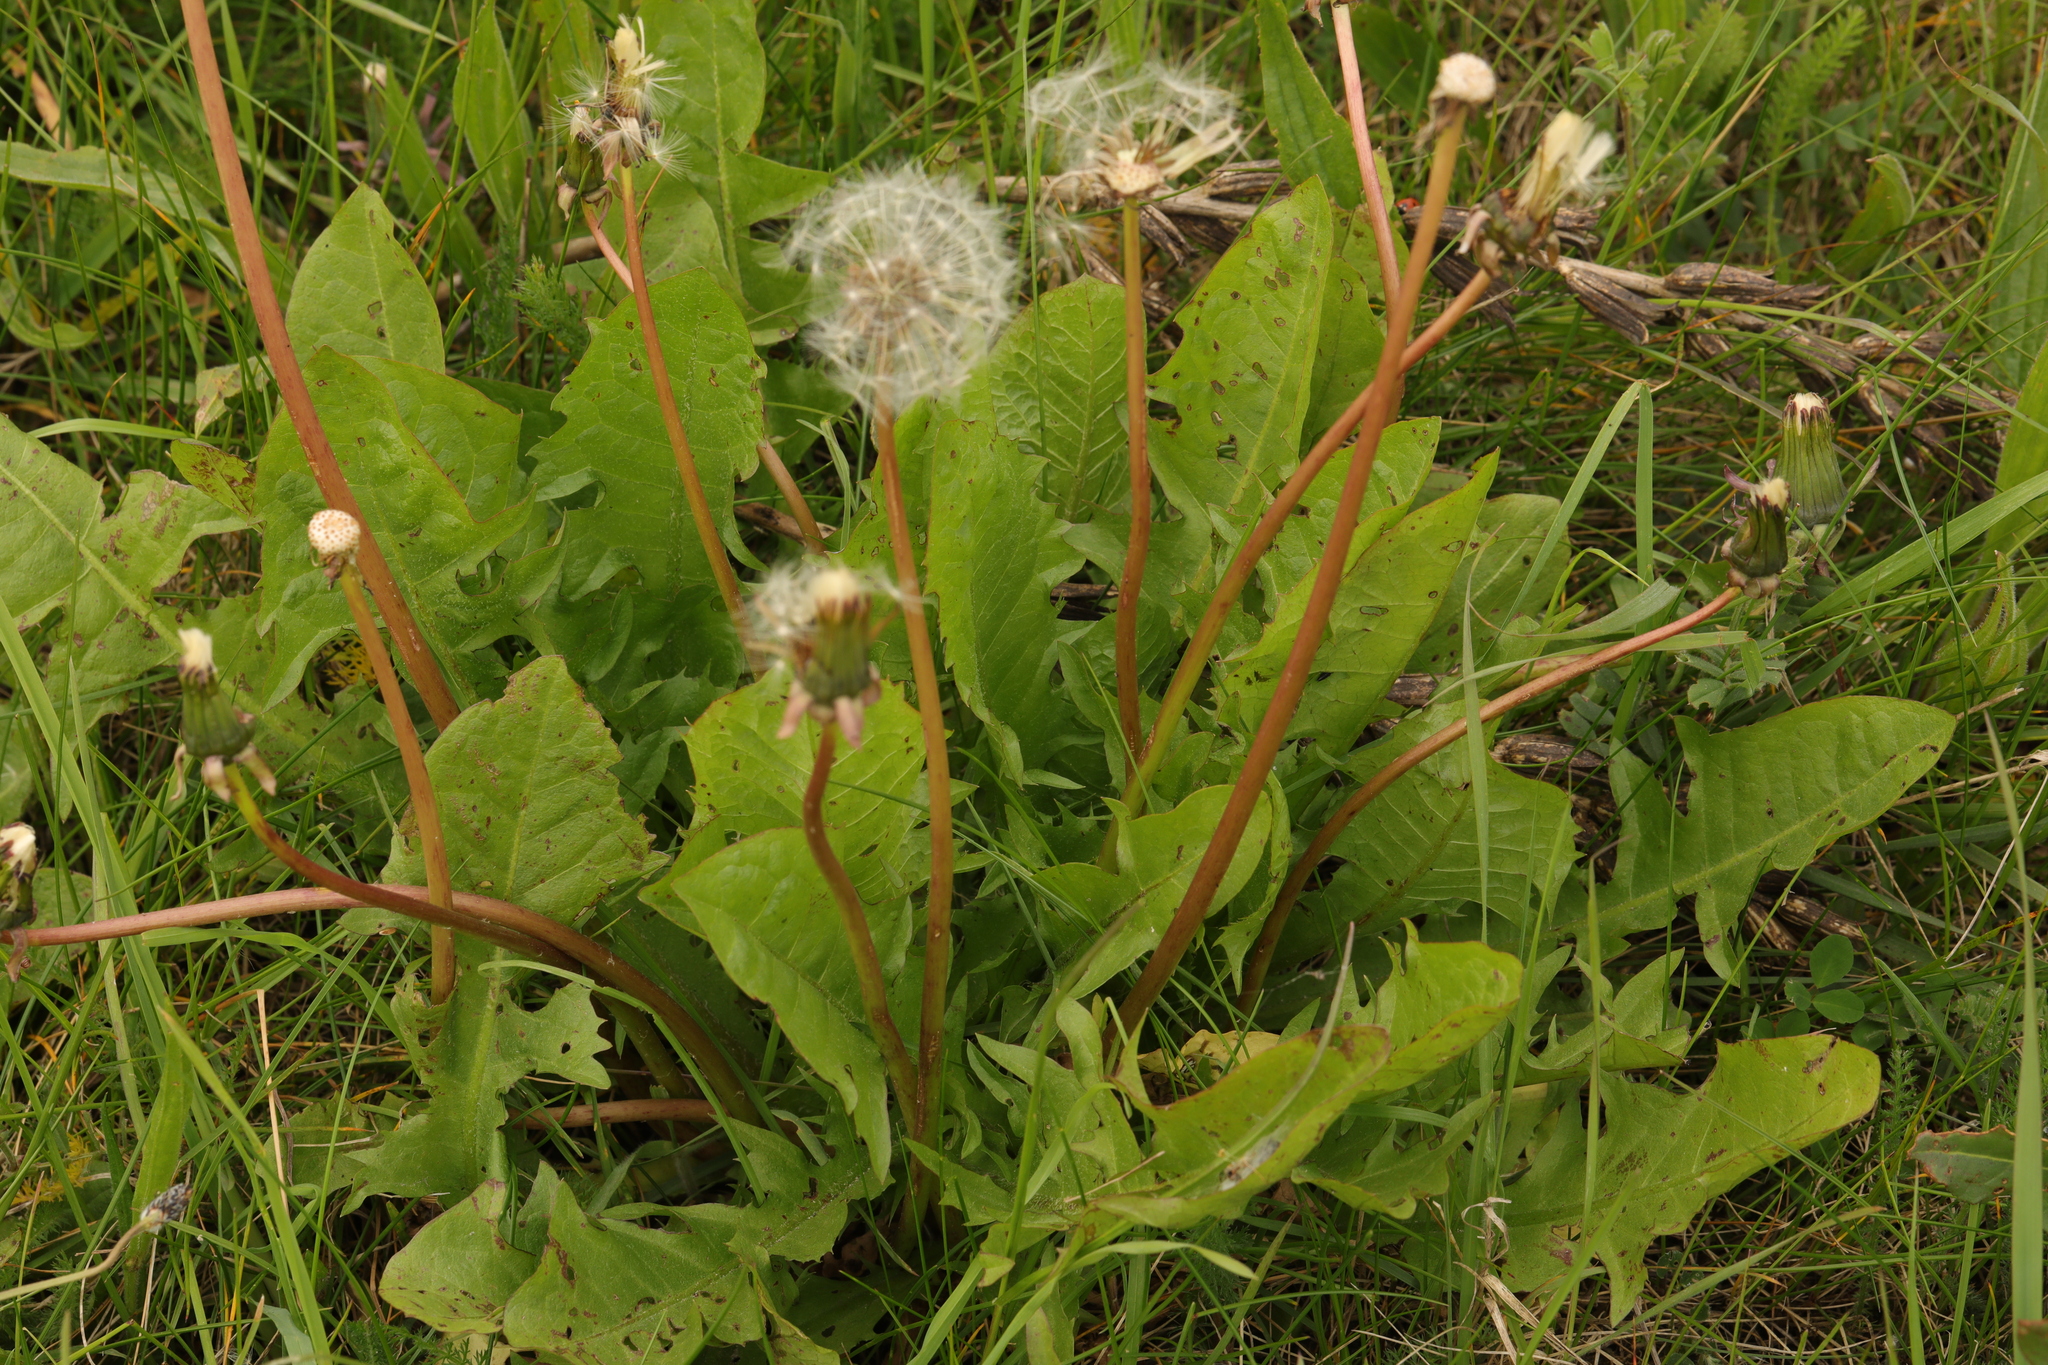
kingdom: Plantae
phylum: Tracheophyta
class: Magnoliopsida
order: Asterales
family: Asteraceae
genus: Taraxacum
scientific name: Taraxacum officinale
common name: Common dandelion
